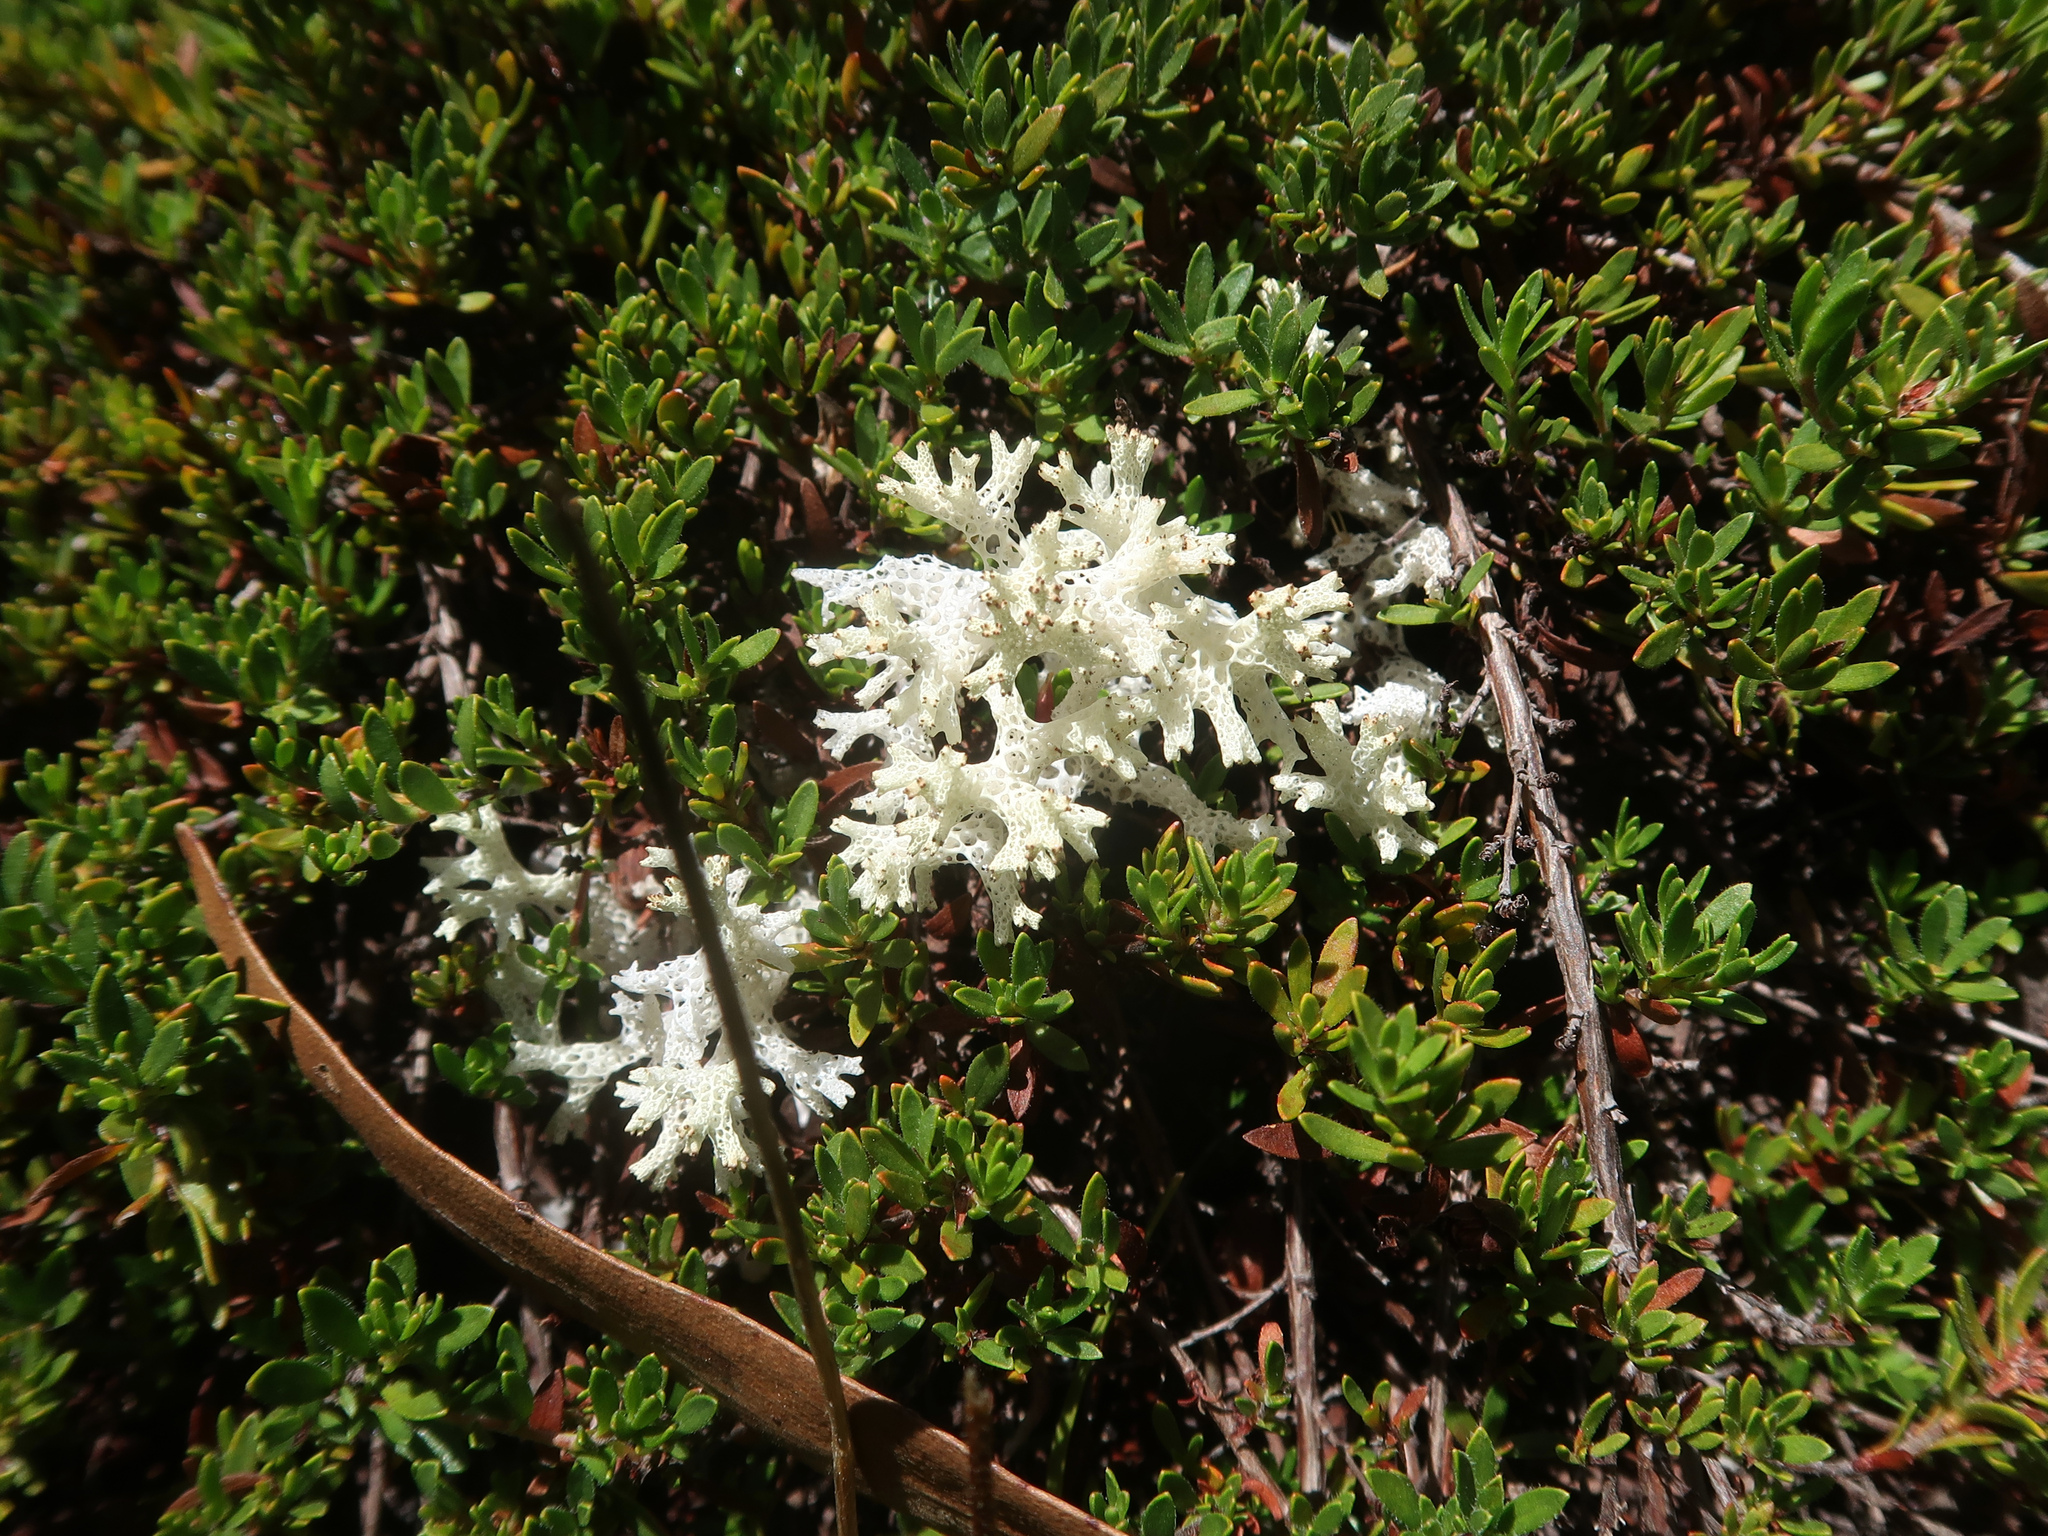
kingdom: Fungi
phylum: Ascomycota
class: Lecanoromycetes
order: Lecanorales
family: Cladoniaceae
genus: Pulchrocladia
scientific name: Pulchrocladia retipora
